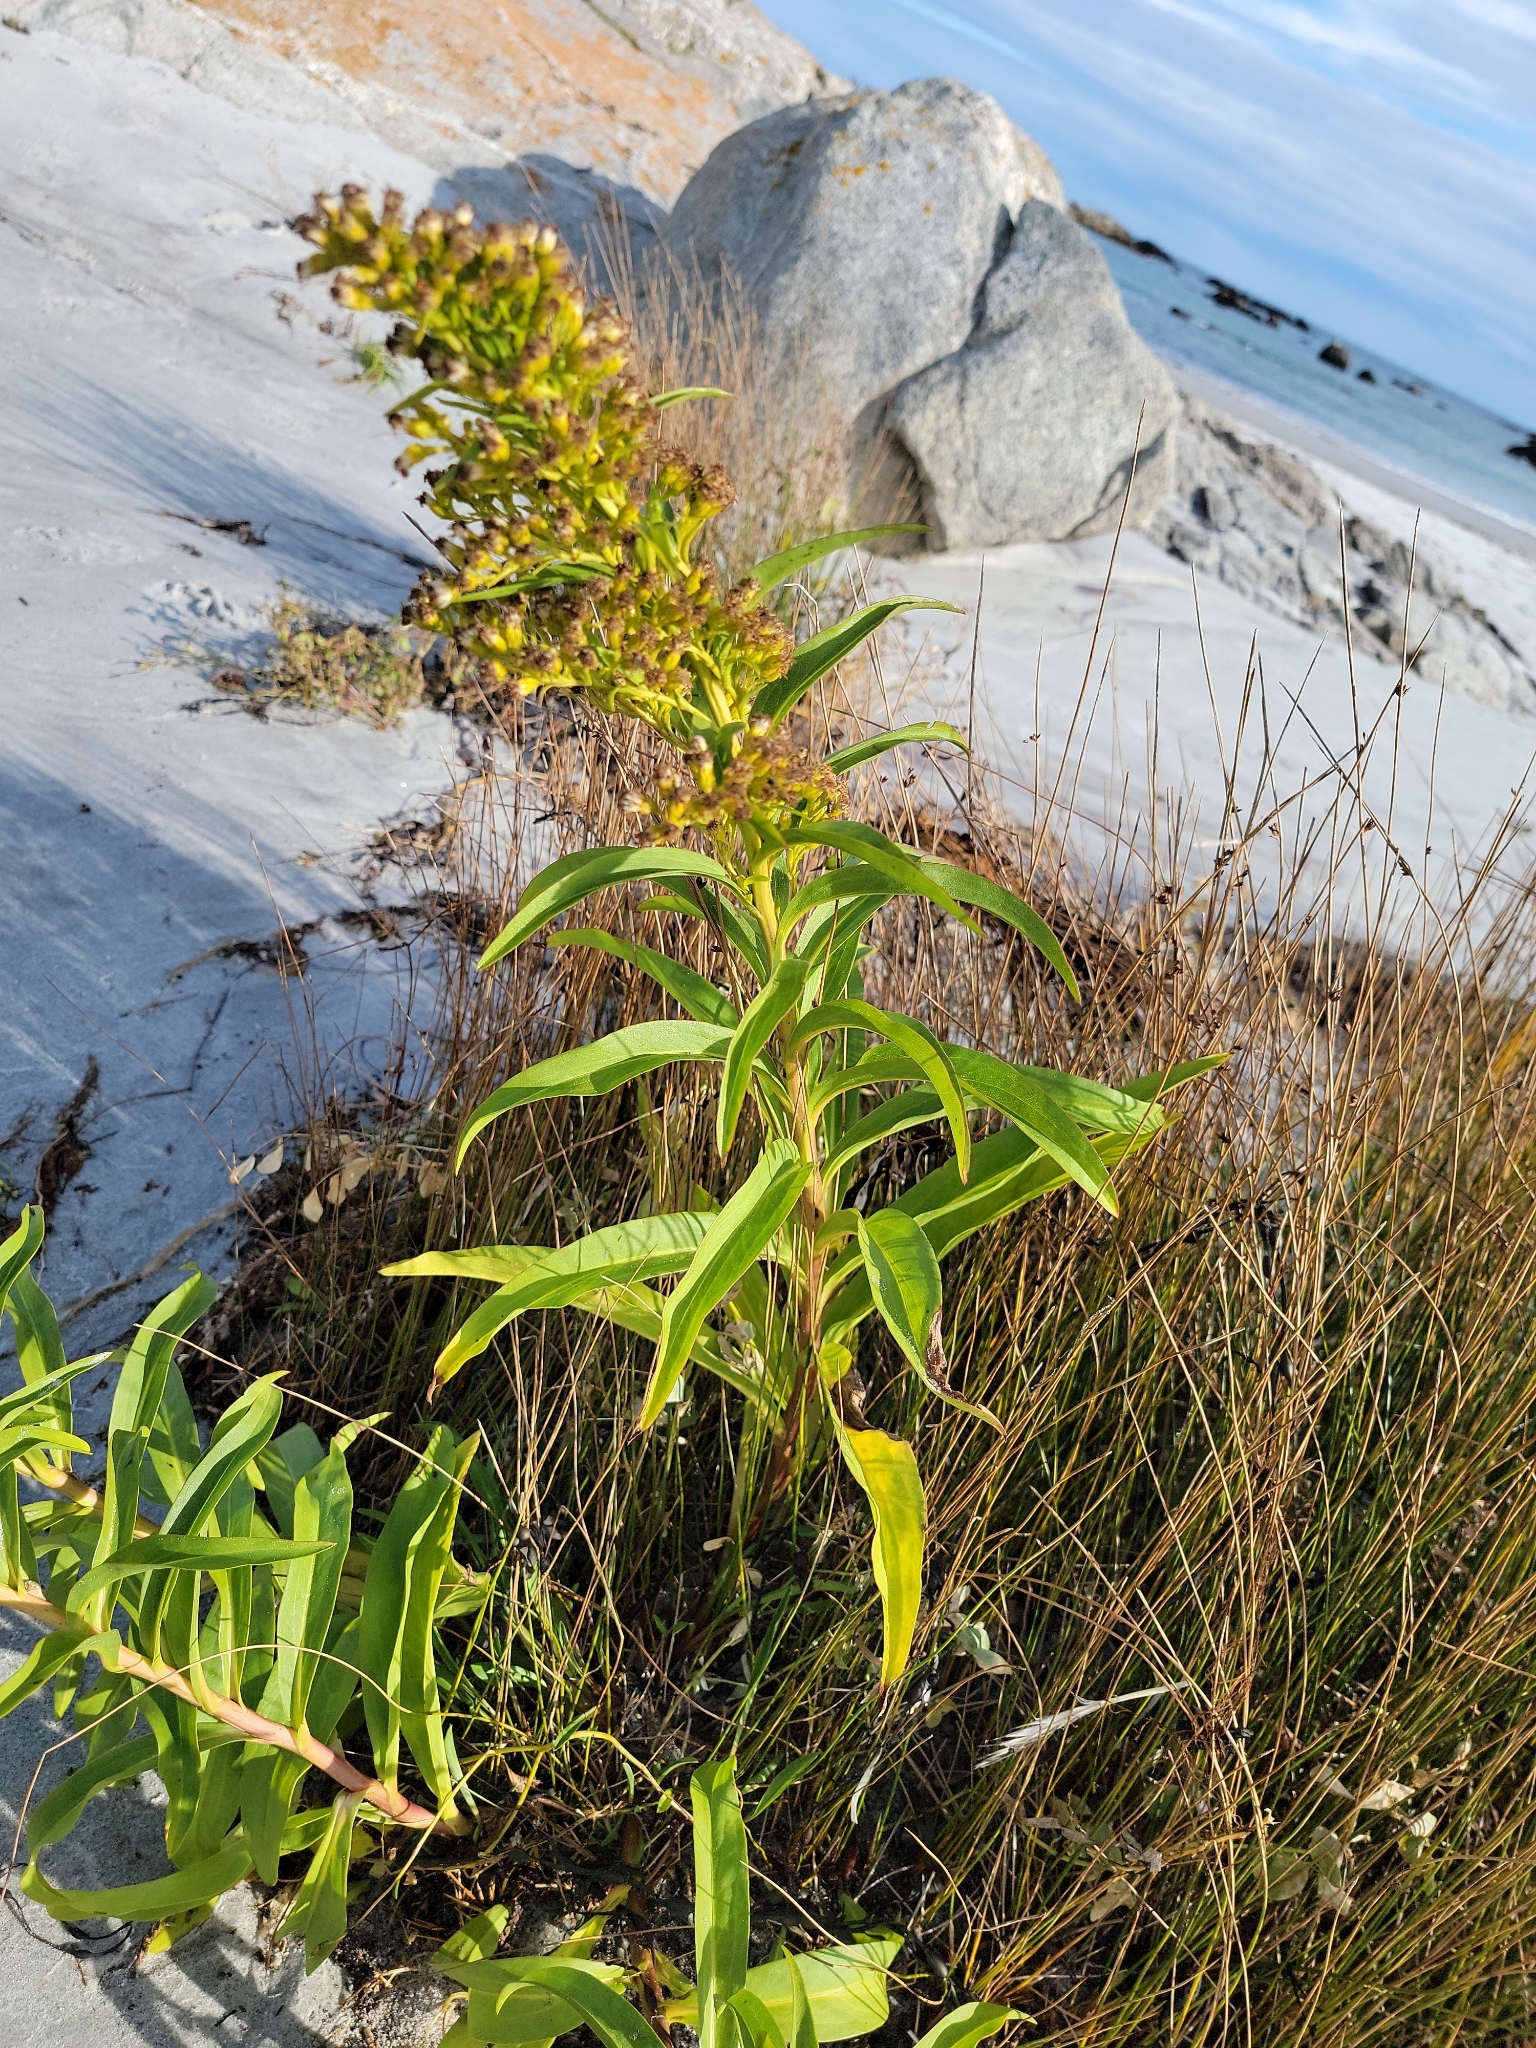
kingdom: Plantae
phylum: Tracheophyta
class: Magnoliopsida
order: Asterales
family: Asteraceae
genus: Solidago
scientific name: Solidago sempervirens
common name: Salt-marsh goldenrod
